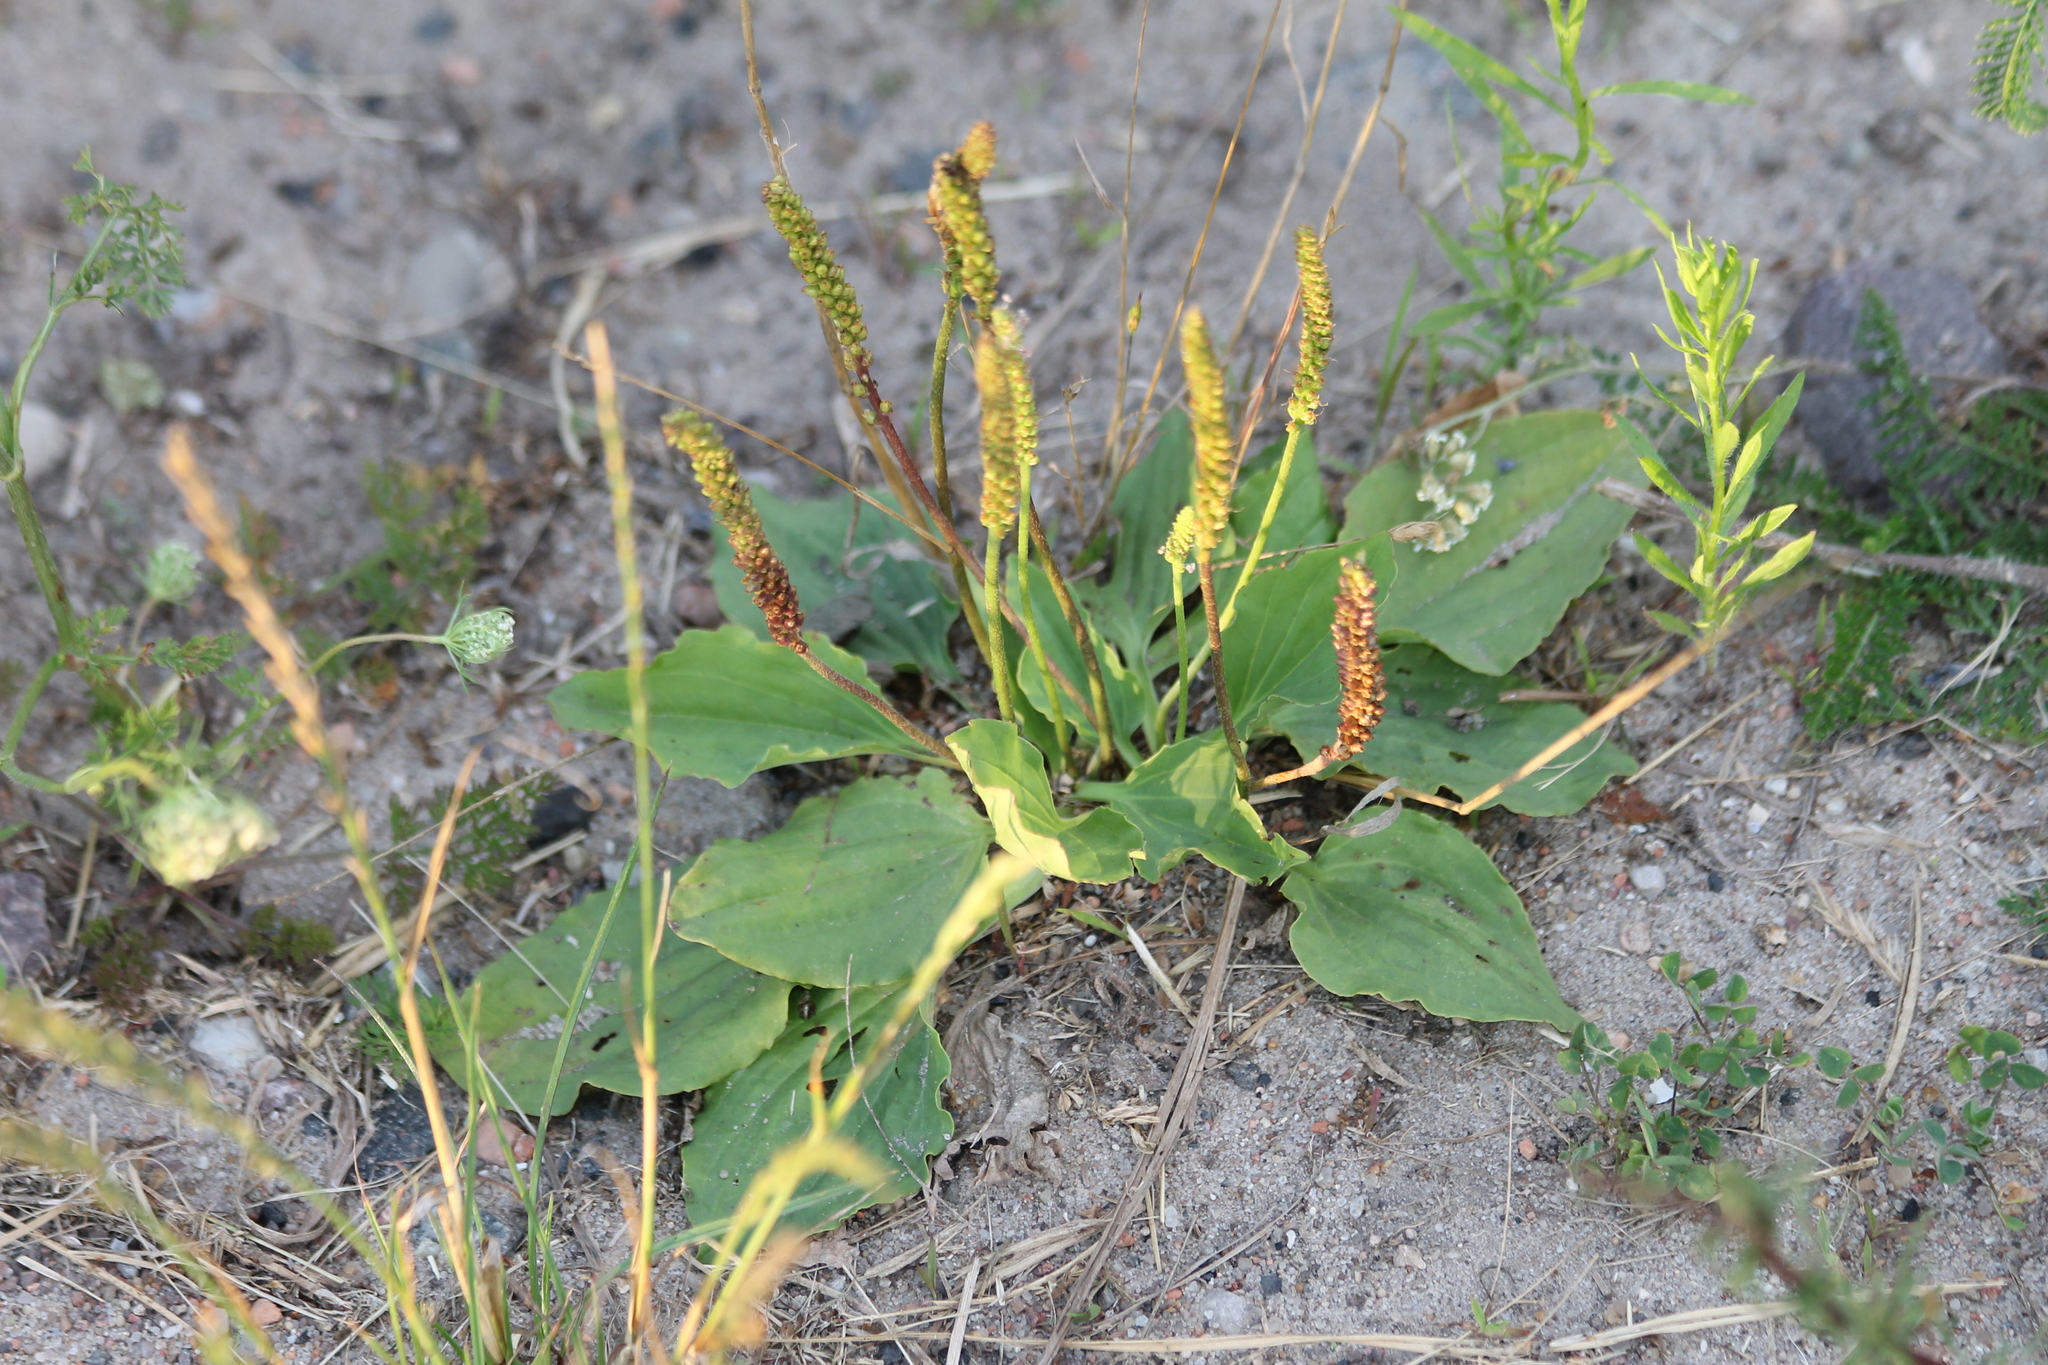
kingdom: Plantae
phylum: Tracheophyta
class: Magnoliopsida
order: Lamiales
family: Plantaginaceae
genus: Plantago
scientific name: Plantago major
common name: Common plantain
